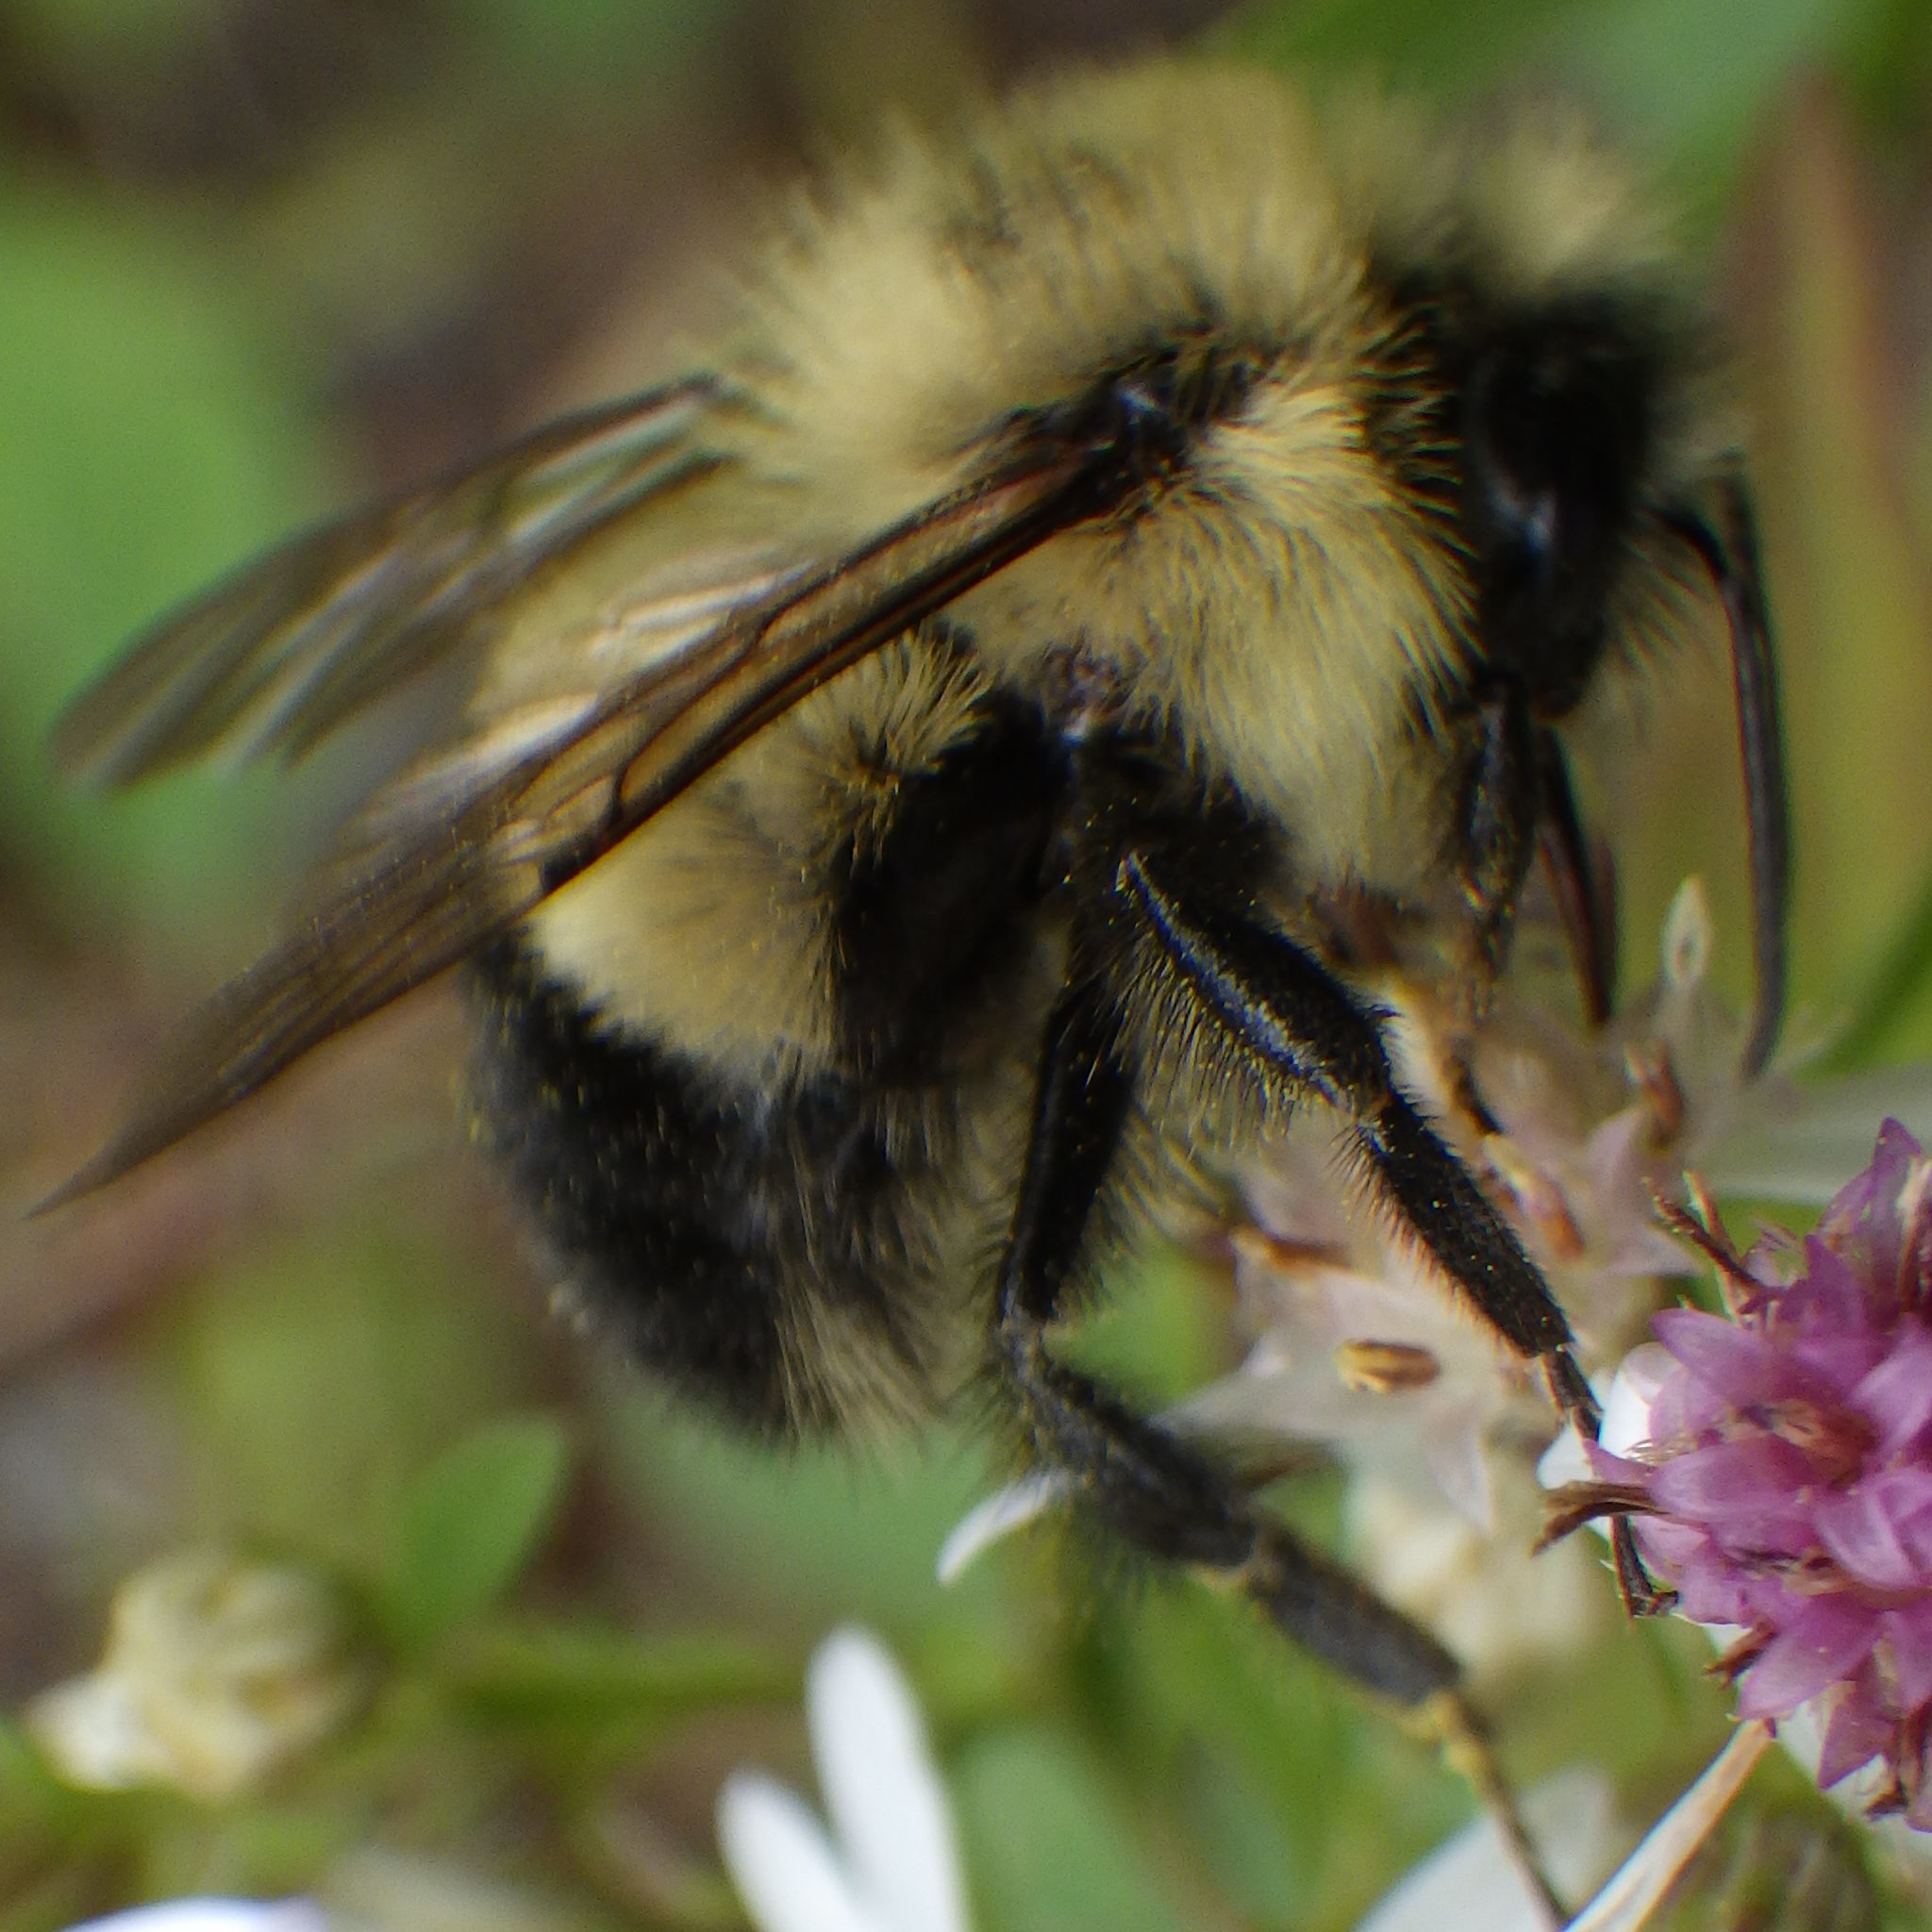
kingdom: Animalia
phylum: Arthropoda
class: Insecta
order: Hymenoptera
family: Apidae
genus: Bombus
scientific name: Bombus vagans
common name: Half-black bumble bee
